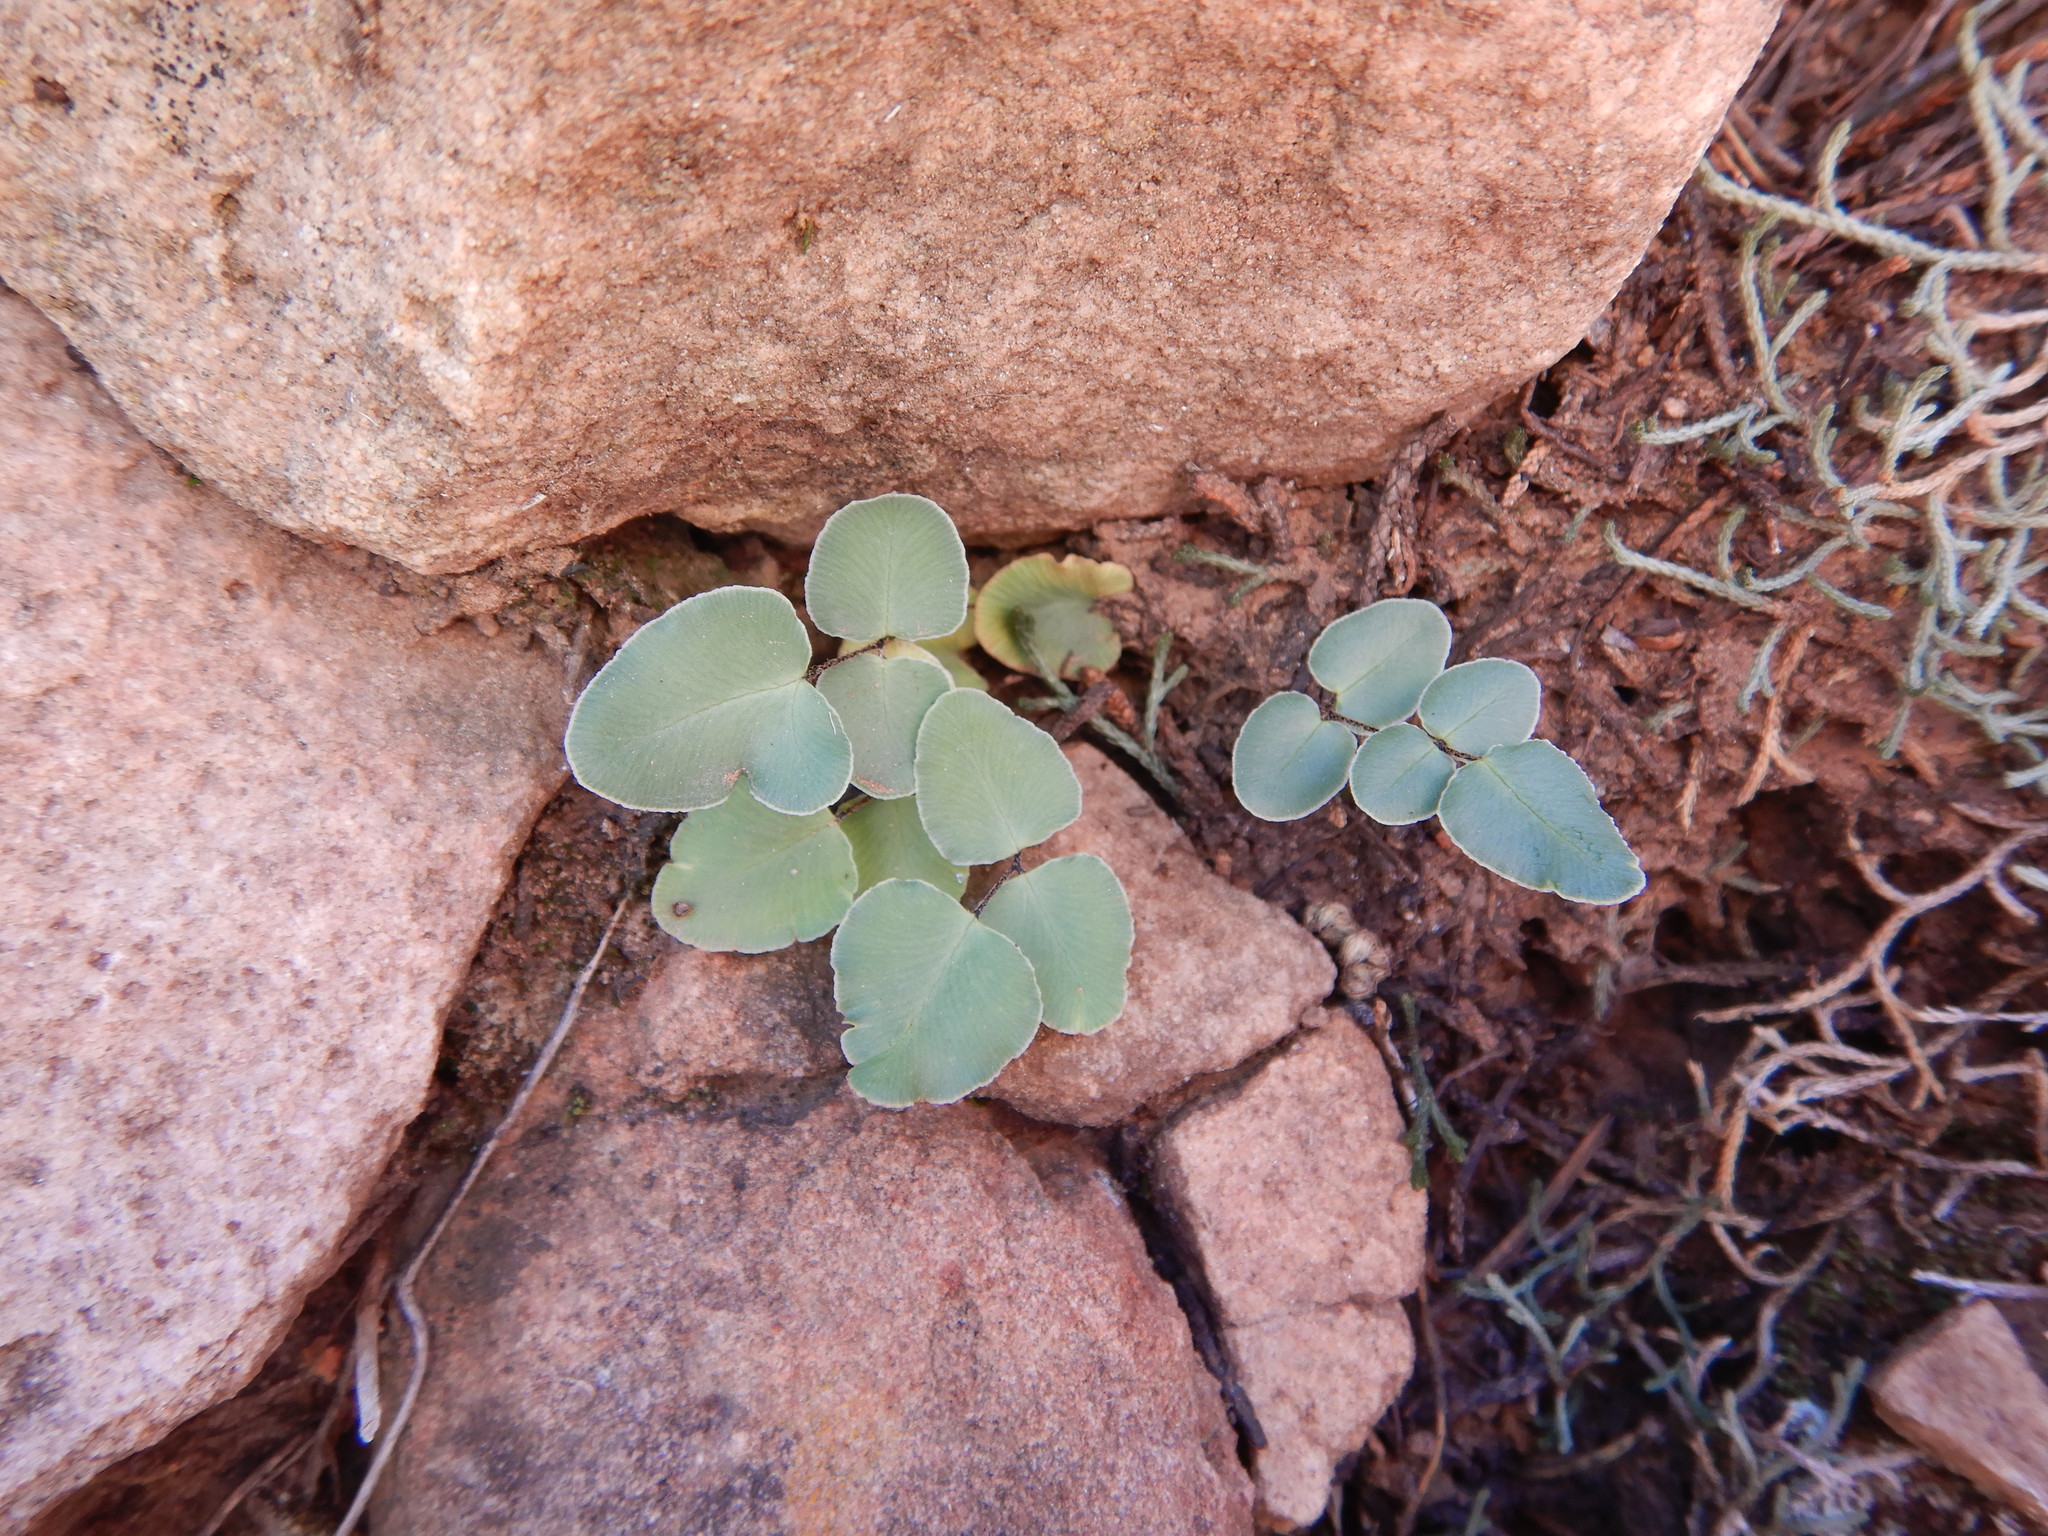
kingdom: Plantae
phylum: Tracheophyta
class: Polypodiopsida
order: Polypodiales
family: Pteridaceae
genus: Pellaea
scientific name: Pellaea atropurpurea
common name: Hairy cliffbrake
